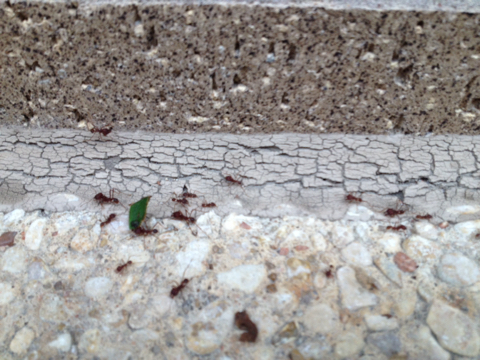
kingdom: Animalia
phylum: Arthropoda
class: Insecta
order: Hymenoptera
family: Formicidae
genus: Atta
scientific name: Atta texana
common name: Texas leafcutting ant
